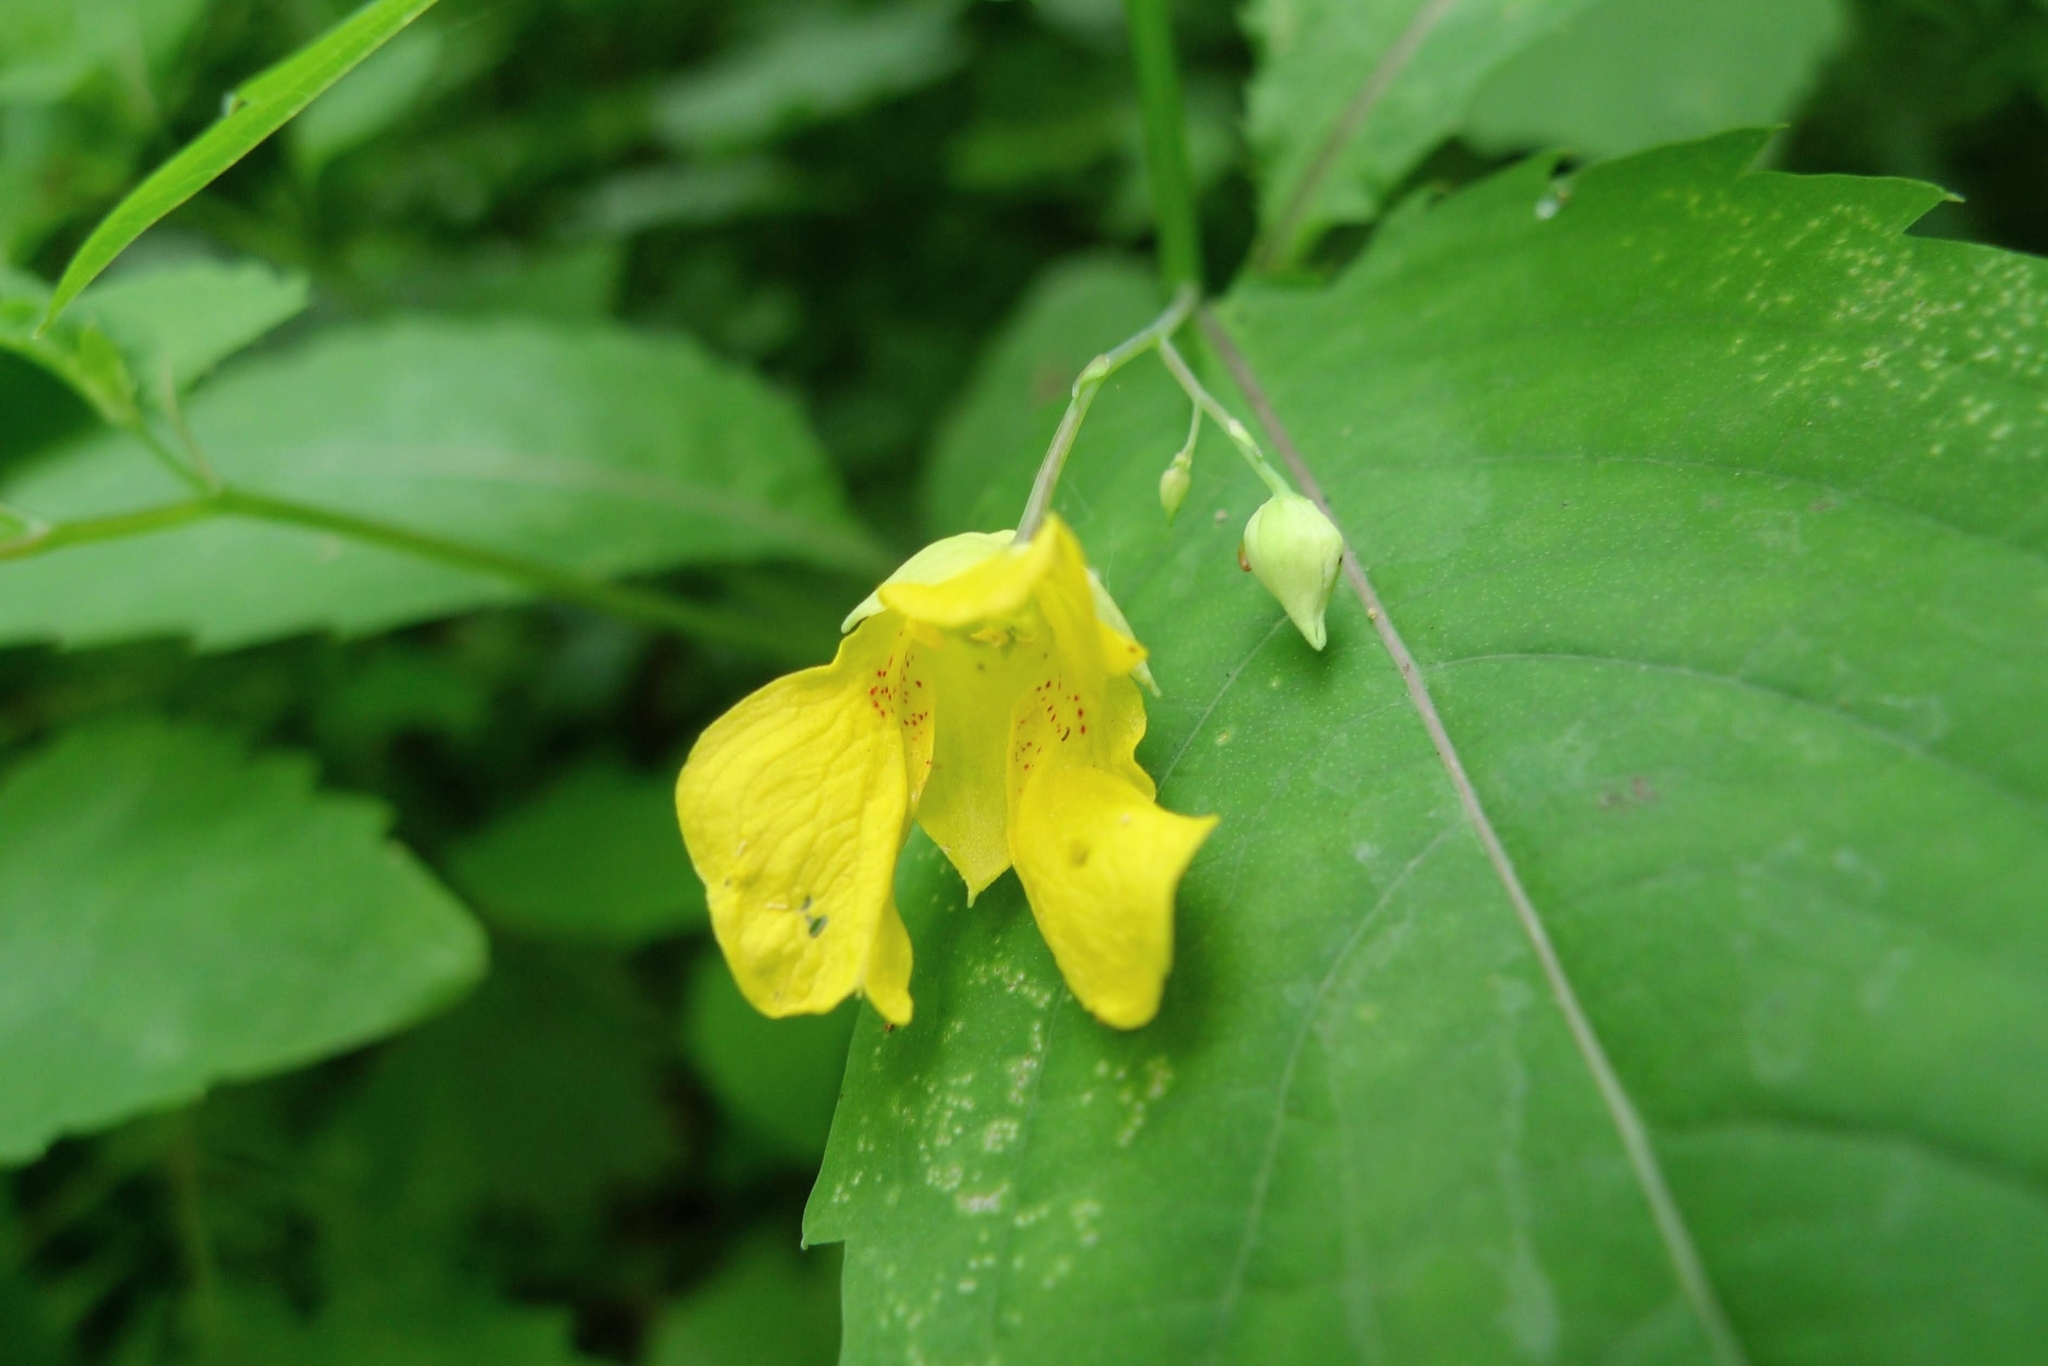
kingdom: Plantae
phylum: Tracheophyta
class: Magnoliopsida
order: Ericales
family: Balsaminaceae
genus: Impatiens
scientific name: Impatiens noli-tangere
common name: Touch-me-not balsam
